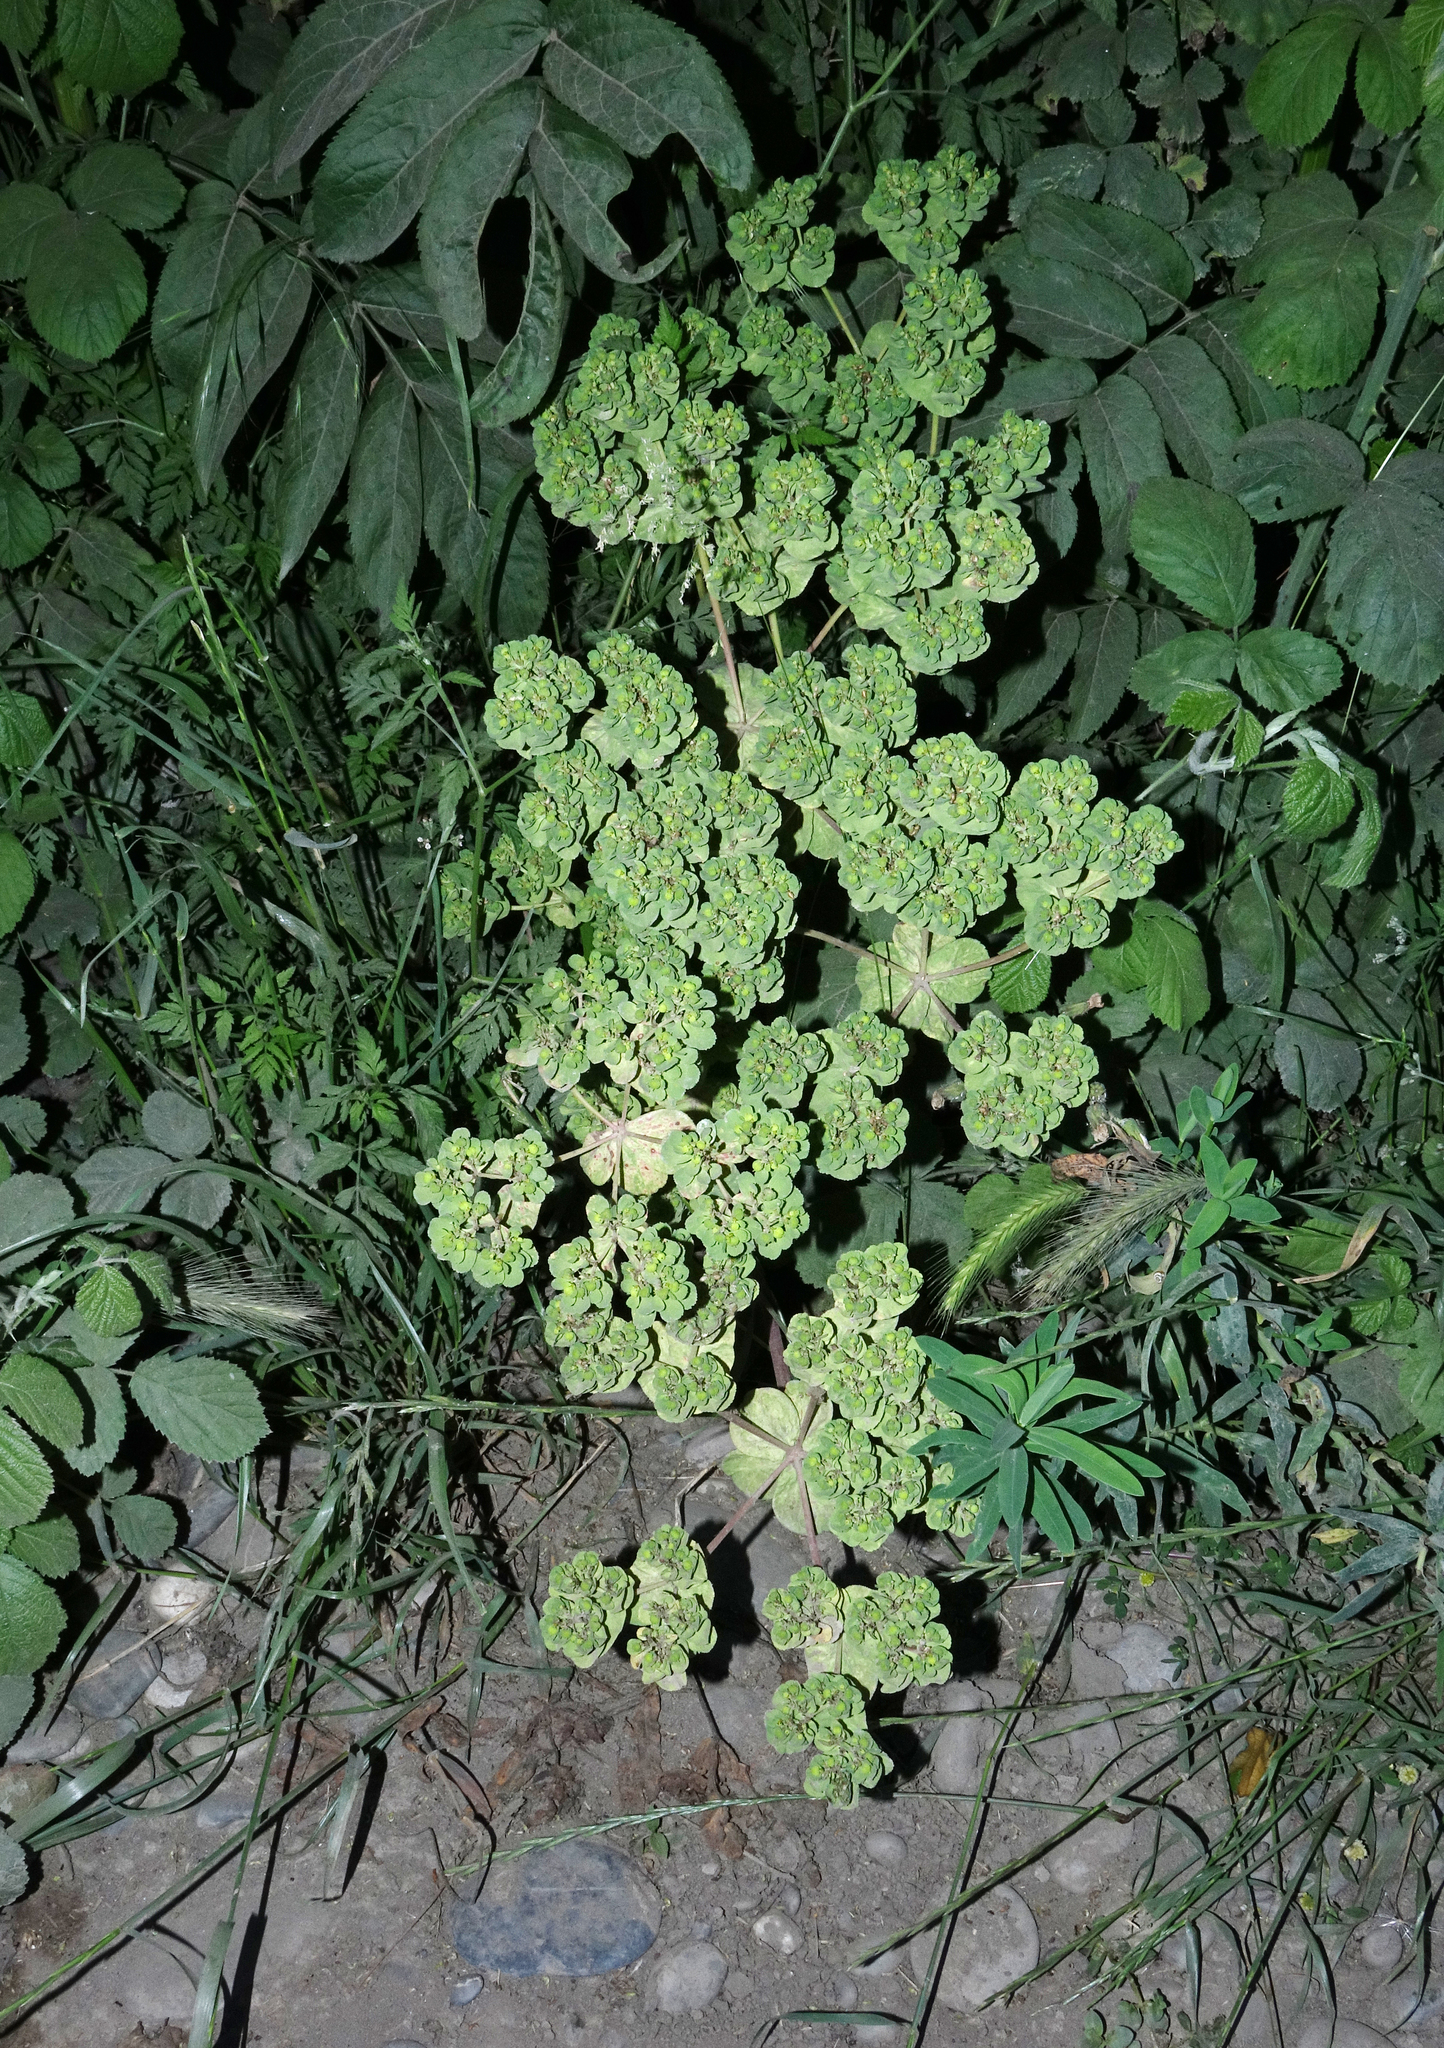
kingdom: Plantae
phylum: Tracheophyta
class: Magnoliopsida
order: Malpighiales
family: Euphorbiaceae
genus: Euphorbia
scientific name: Euphorbia helioscopia
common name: Sun spurge
